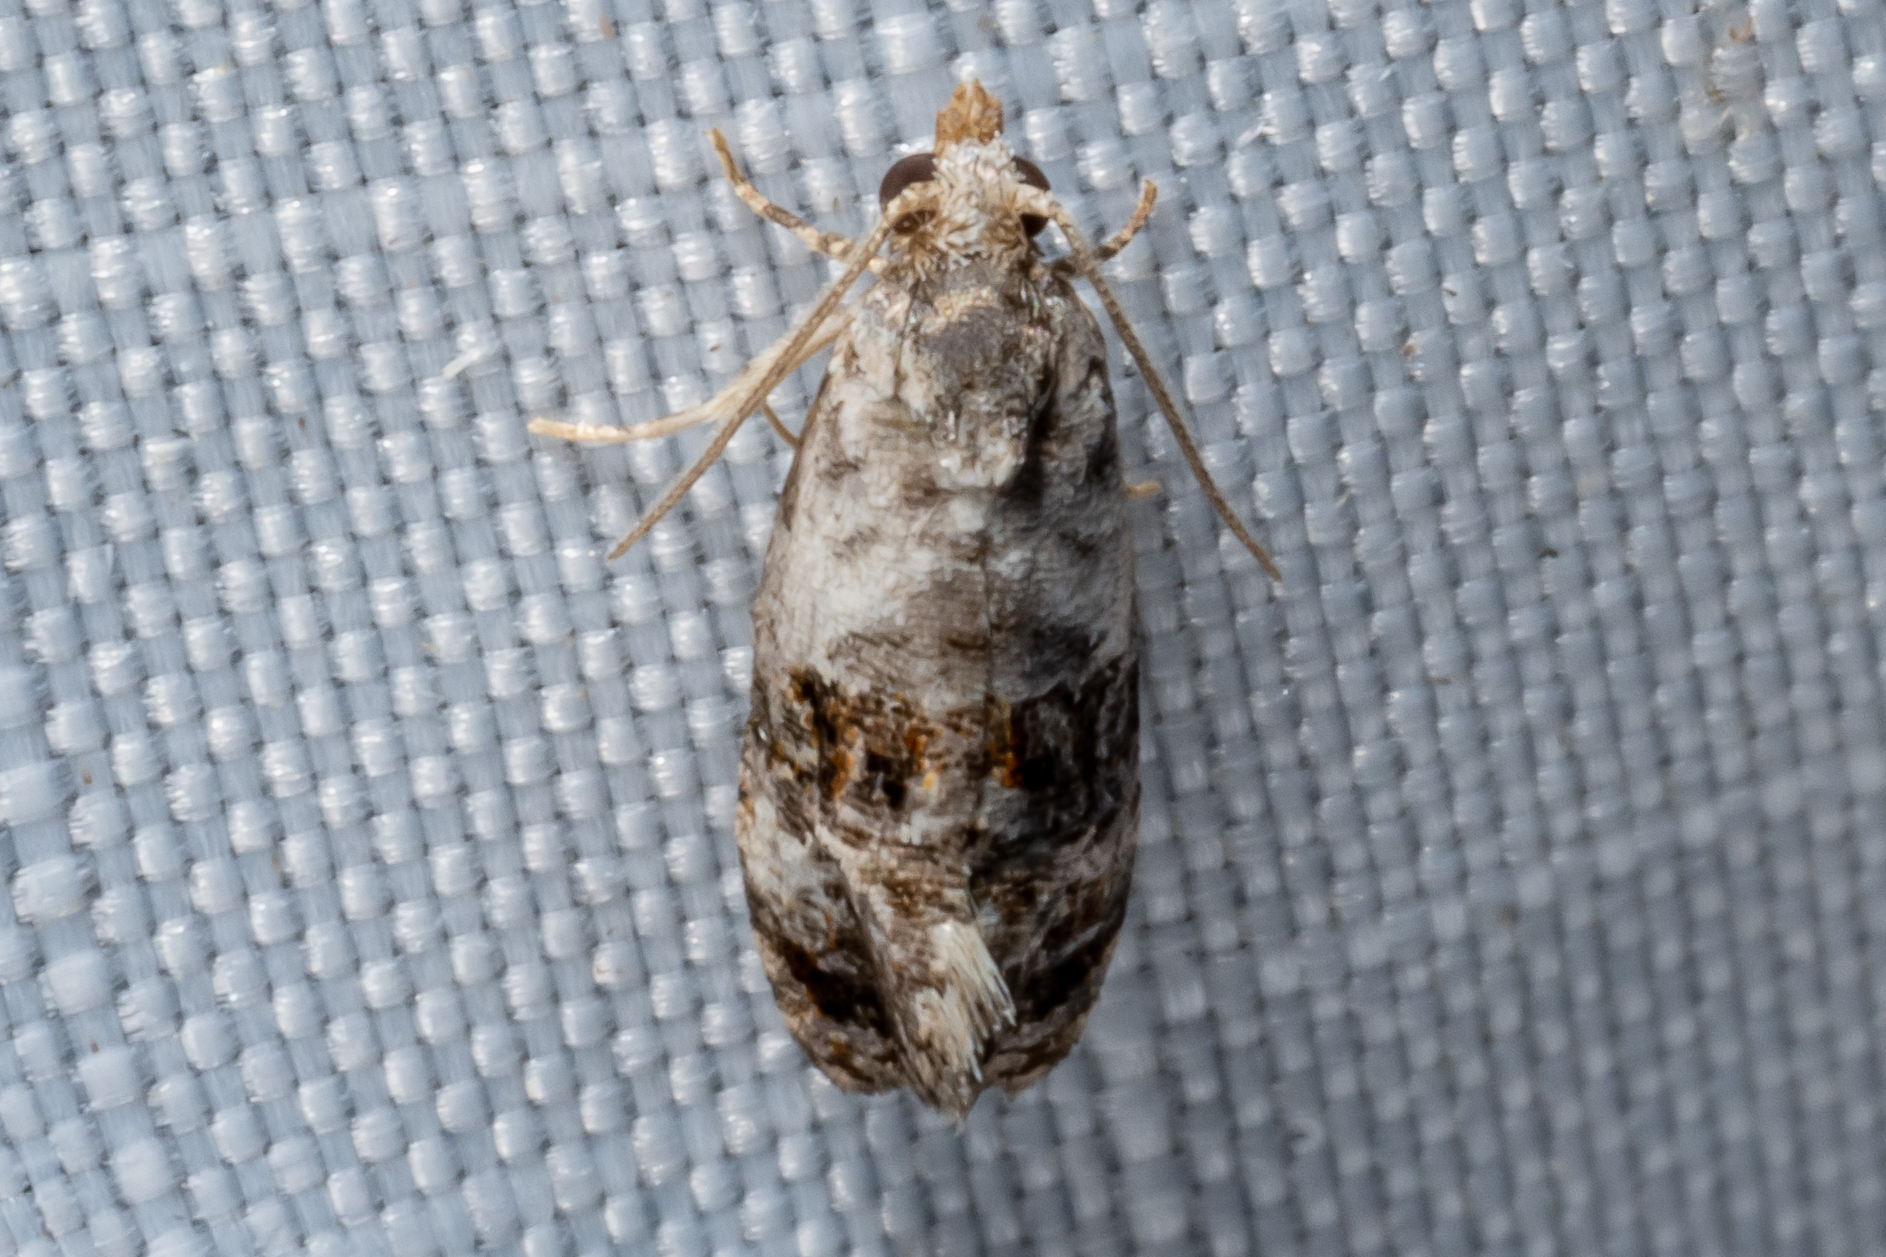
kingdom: Animalia
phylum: Arthropoda
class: Insecta
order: Lepidoptera
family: Tortricidae
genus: Rudenia
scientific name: Rudenia leguminana
